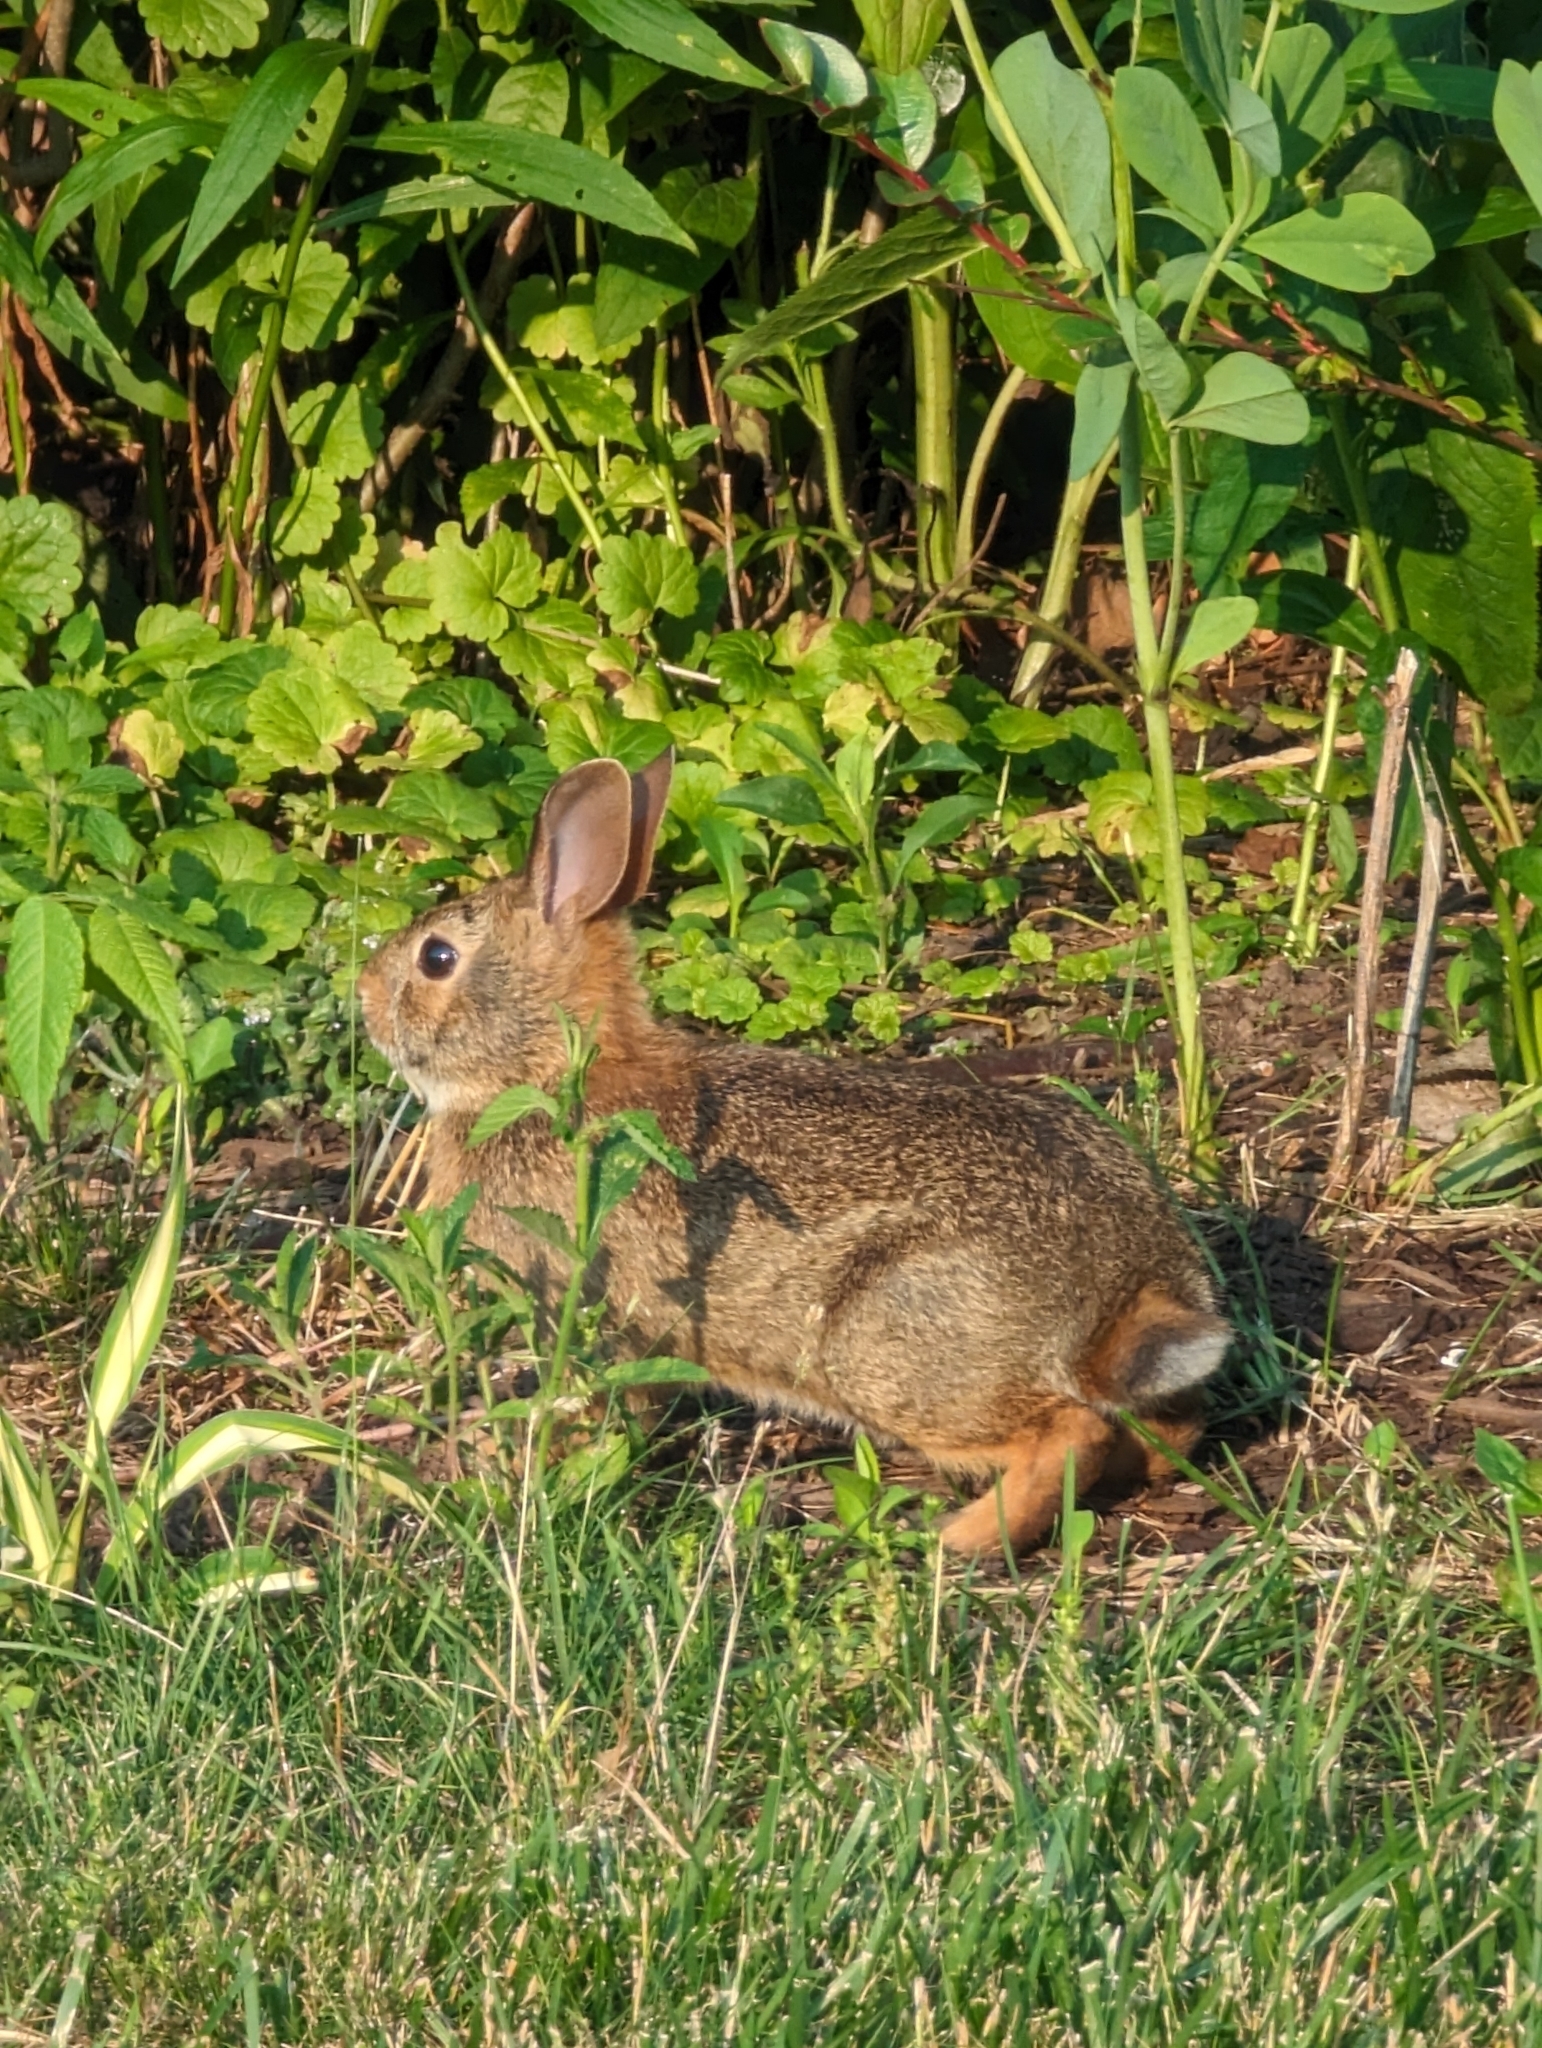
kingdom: Animalia
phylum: Chordata
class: Mammalia
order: Lagomorpha
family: Leporidae
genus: Sylvilagus
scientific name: Sylvilagus floridanus
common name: Eastern cottontail
